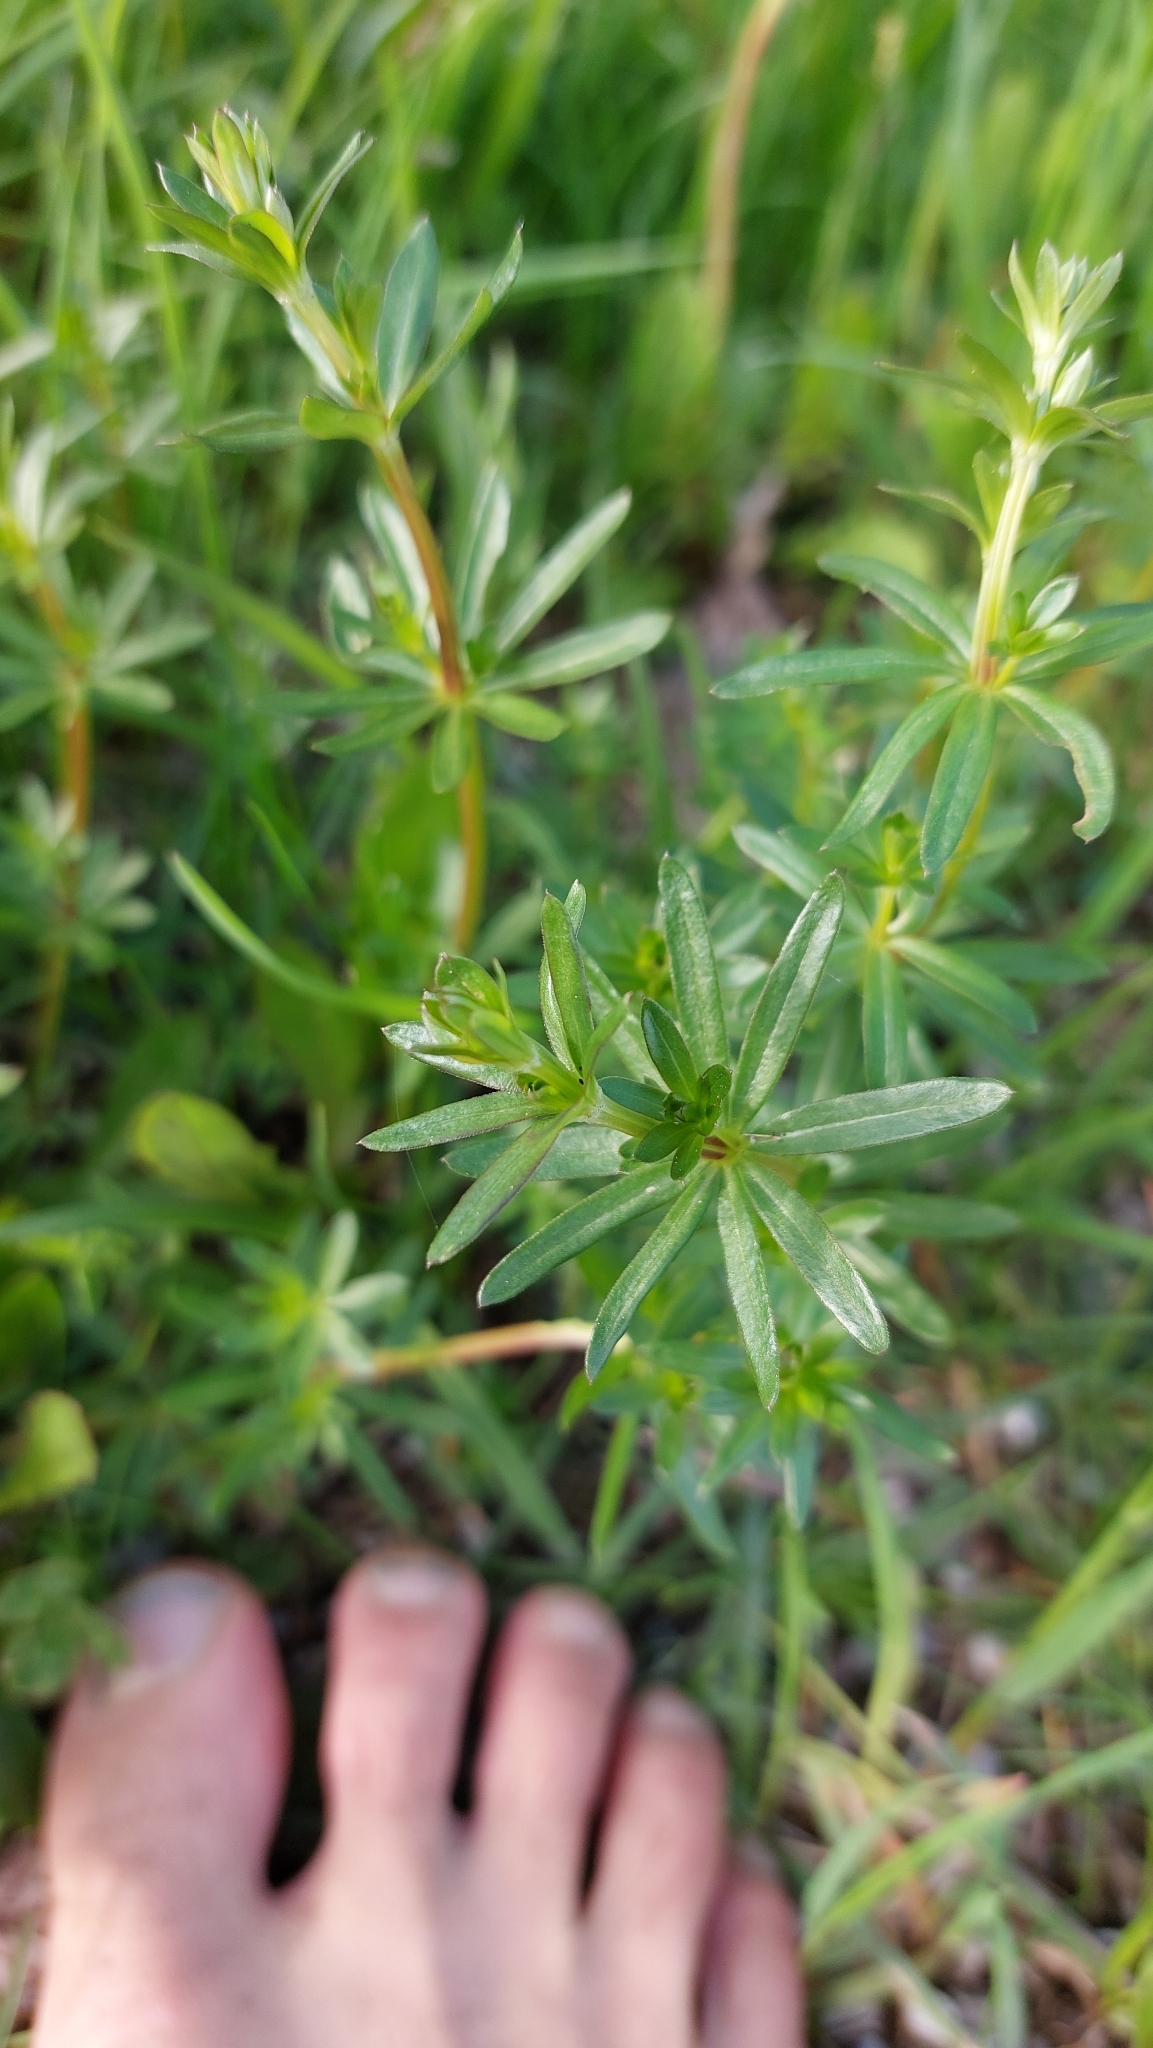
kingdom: Plantae
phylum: Tracheophyta
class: Magnoliopsida
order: Gentianales
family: Rubiaceae
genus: Galium
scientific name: Galium album
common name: White bedstraw
